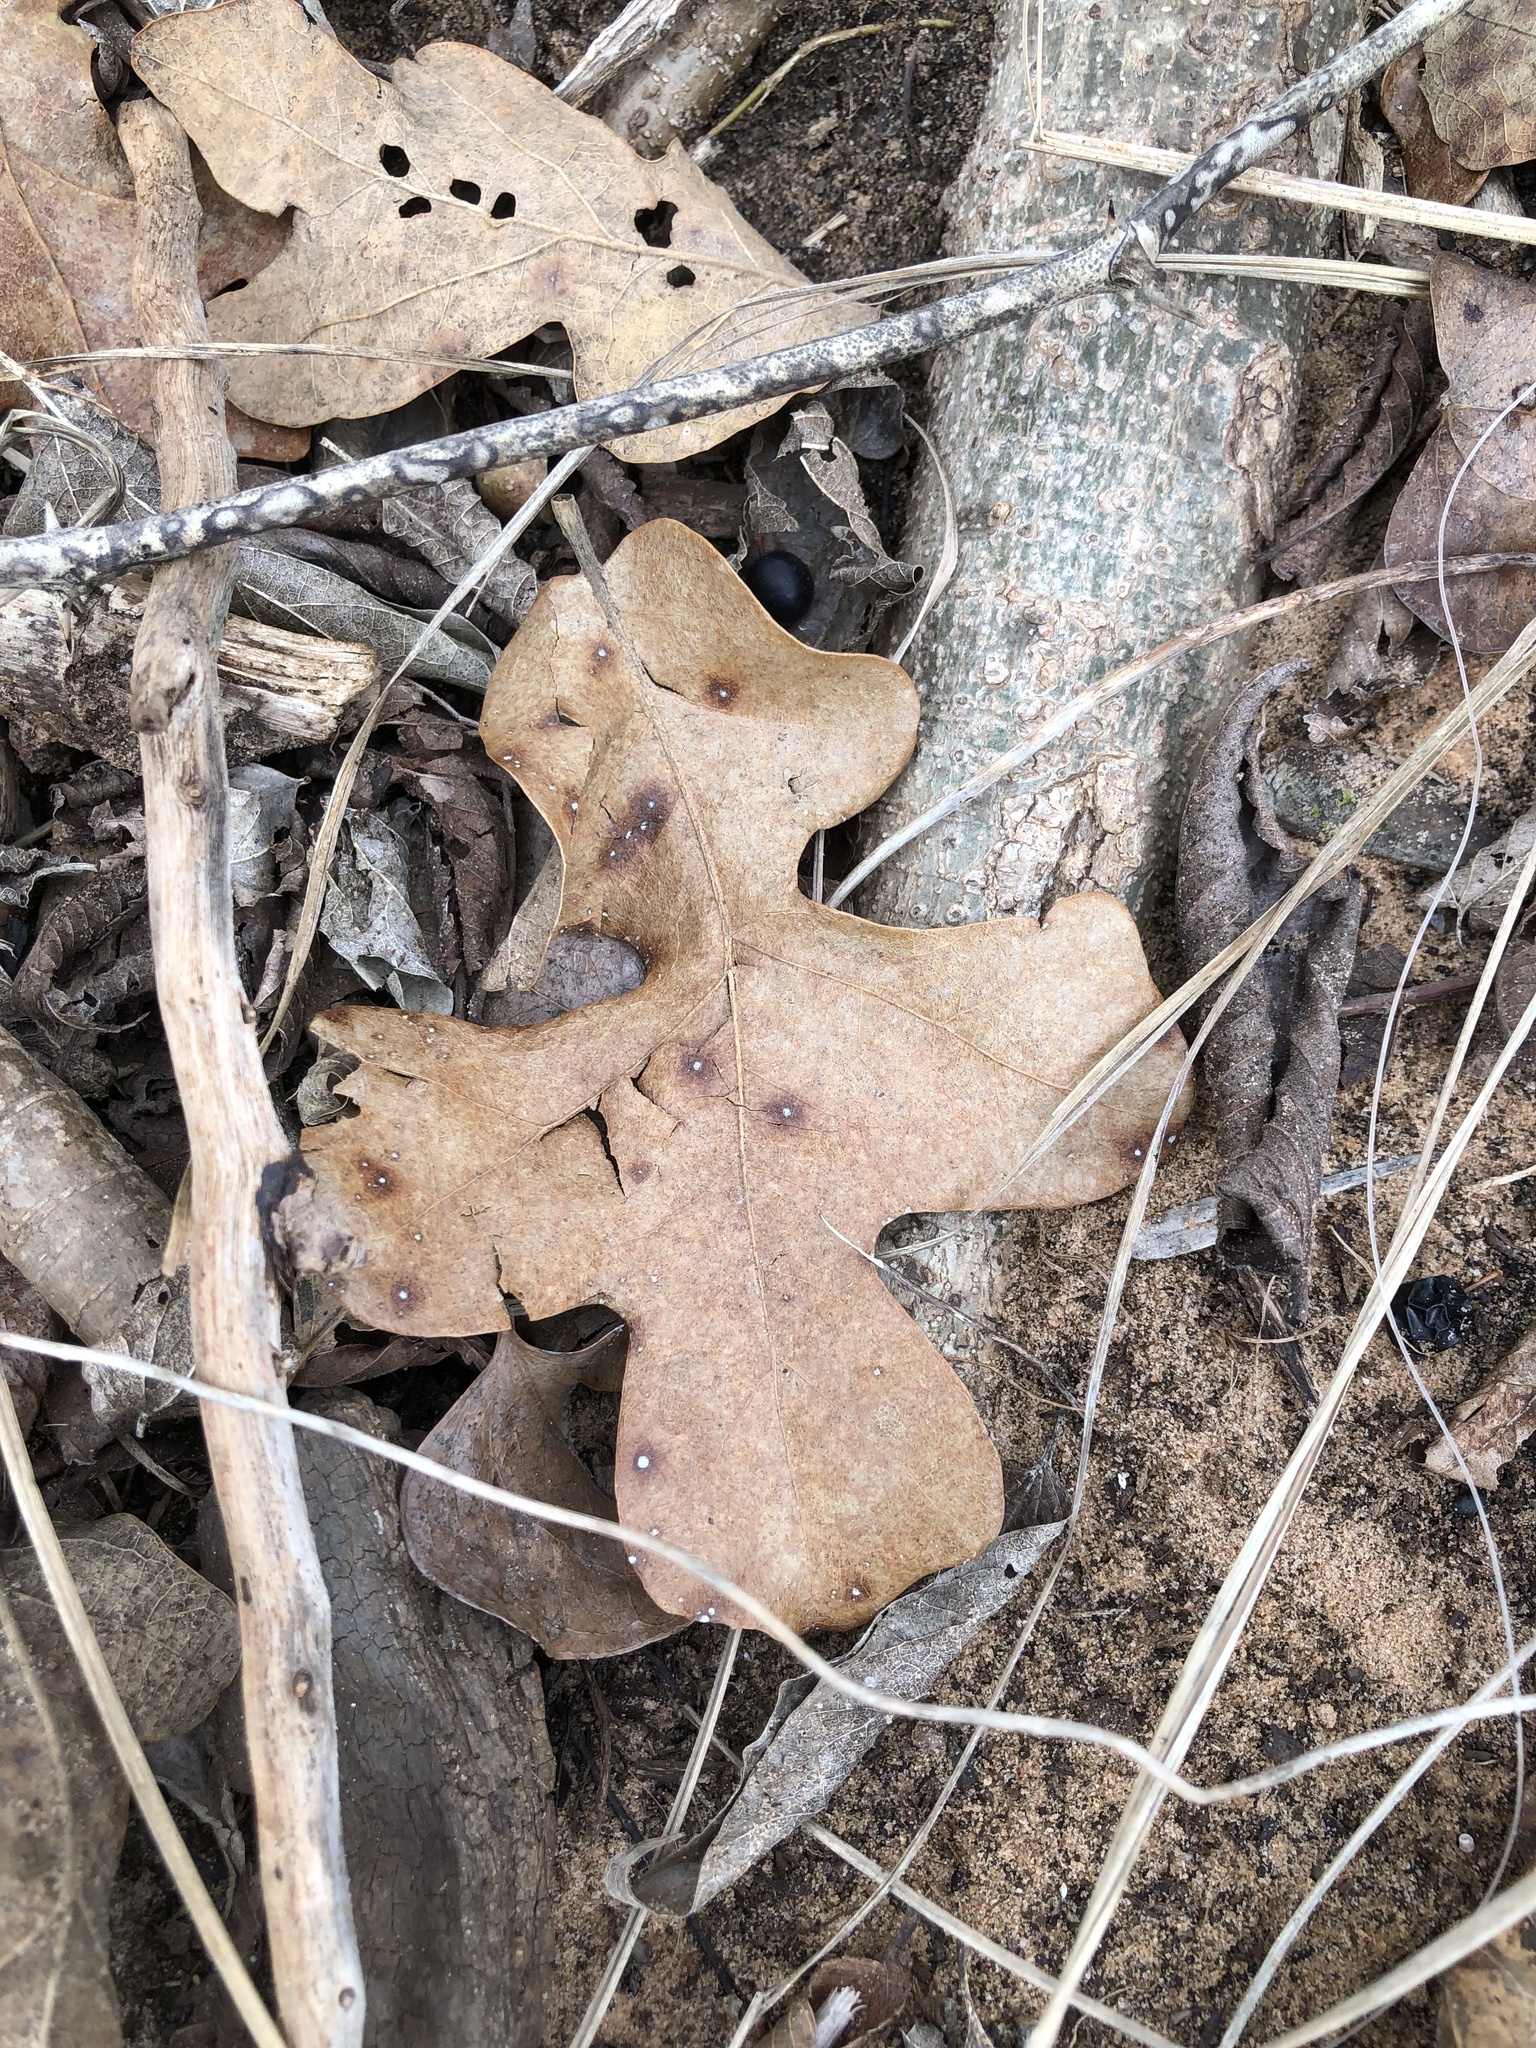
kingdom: Plantae
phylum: Tracheophyta
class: Magnoliopsida
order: Fagales
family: Fagaceae
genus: Quercus
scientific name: Quercus stellata
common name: Post oak
